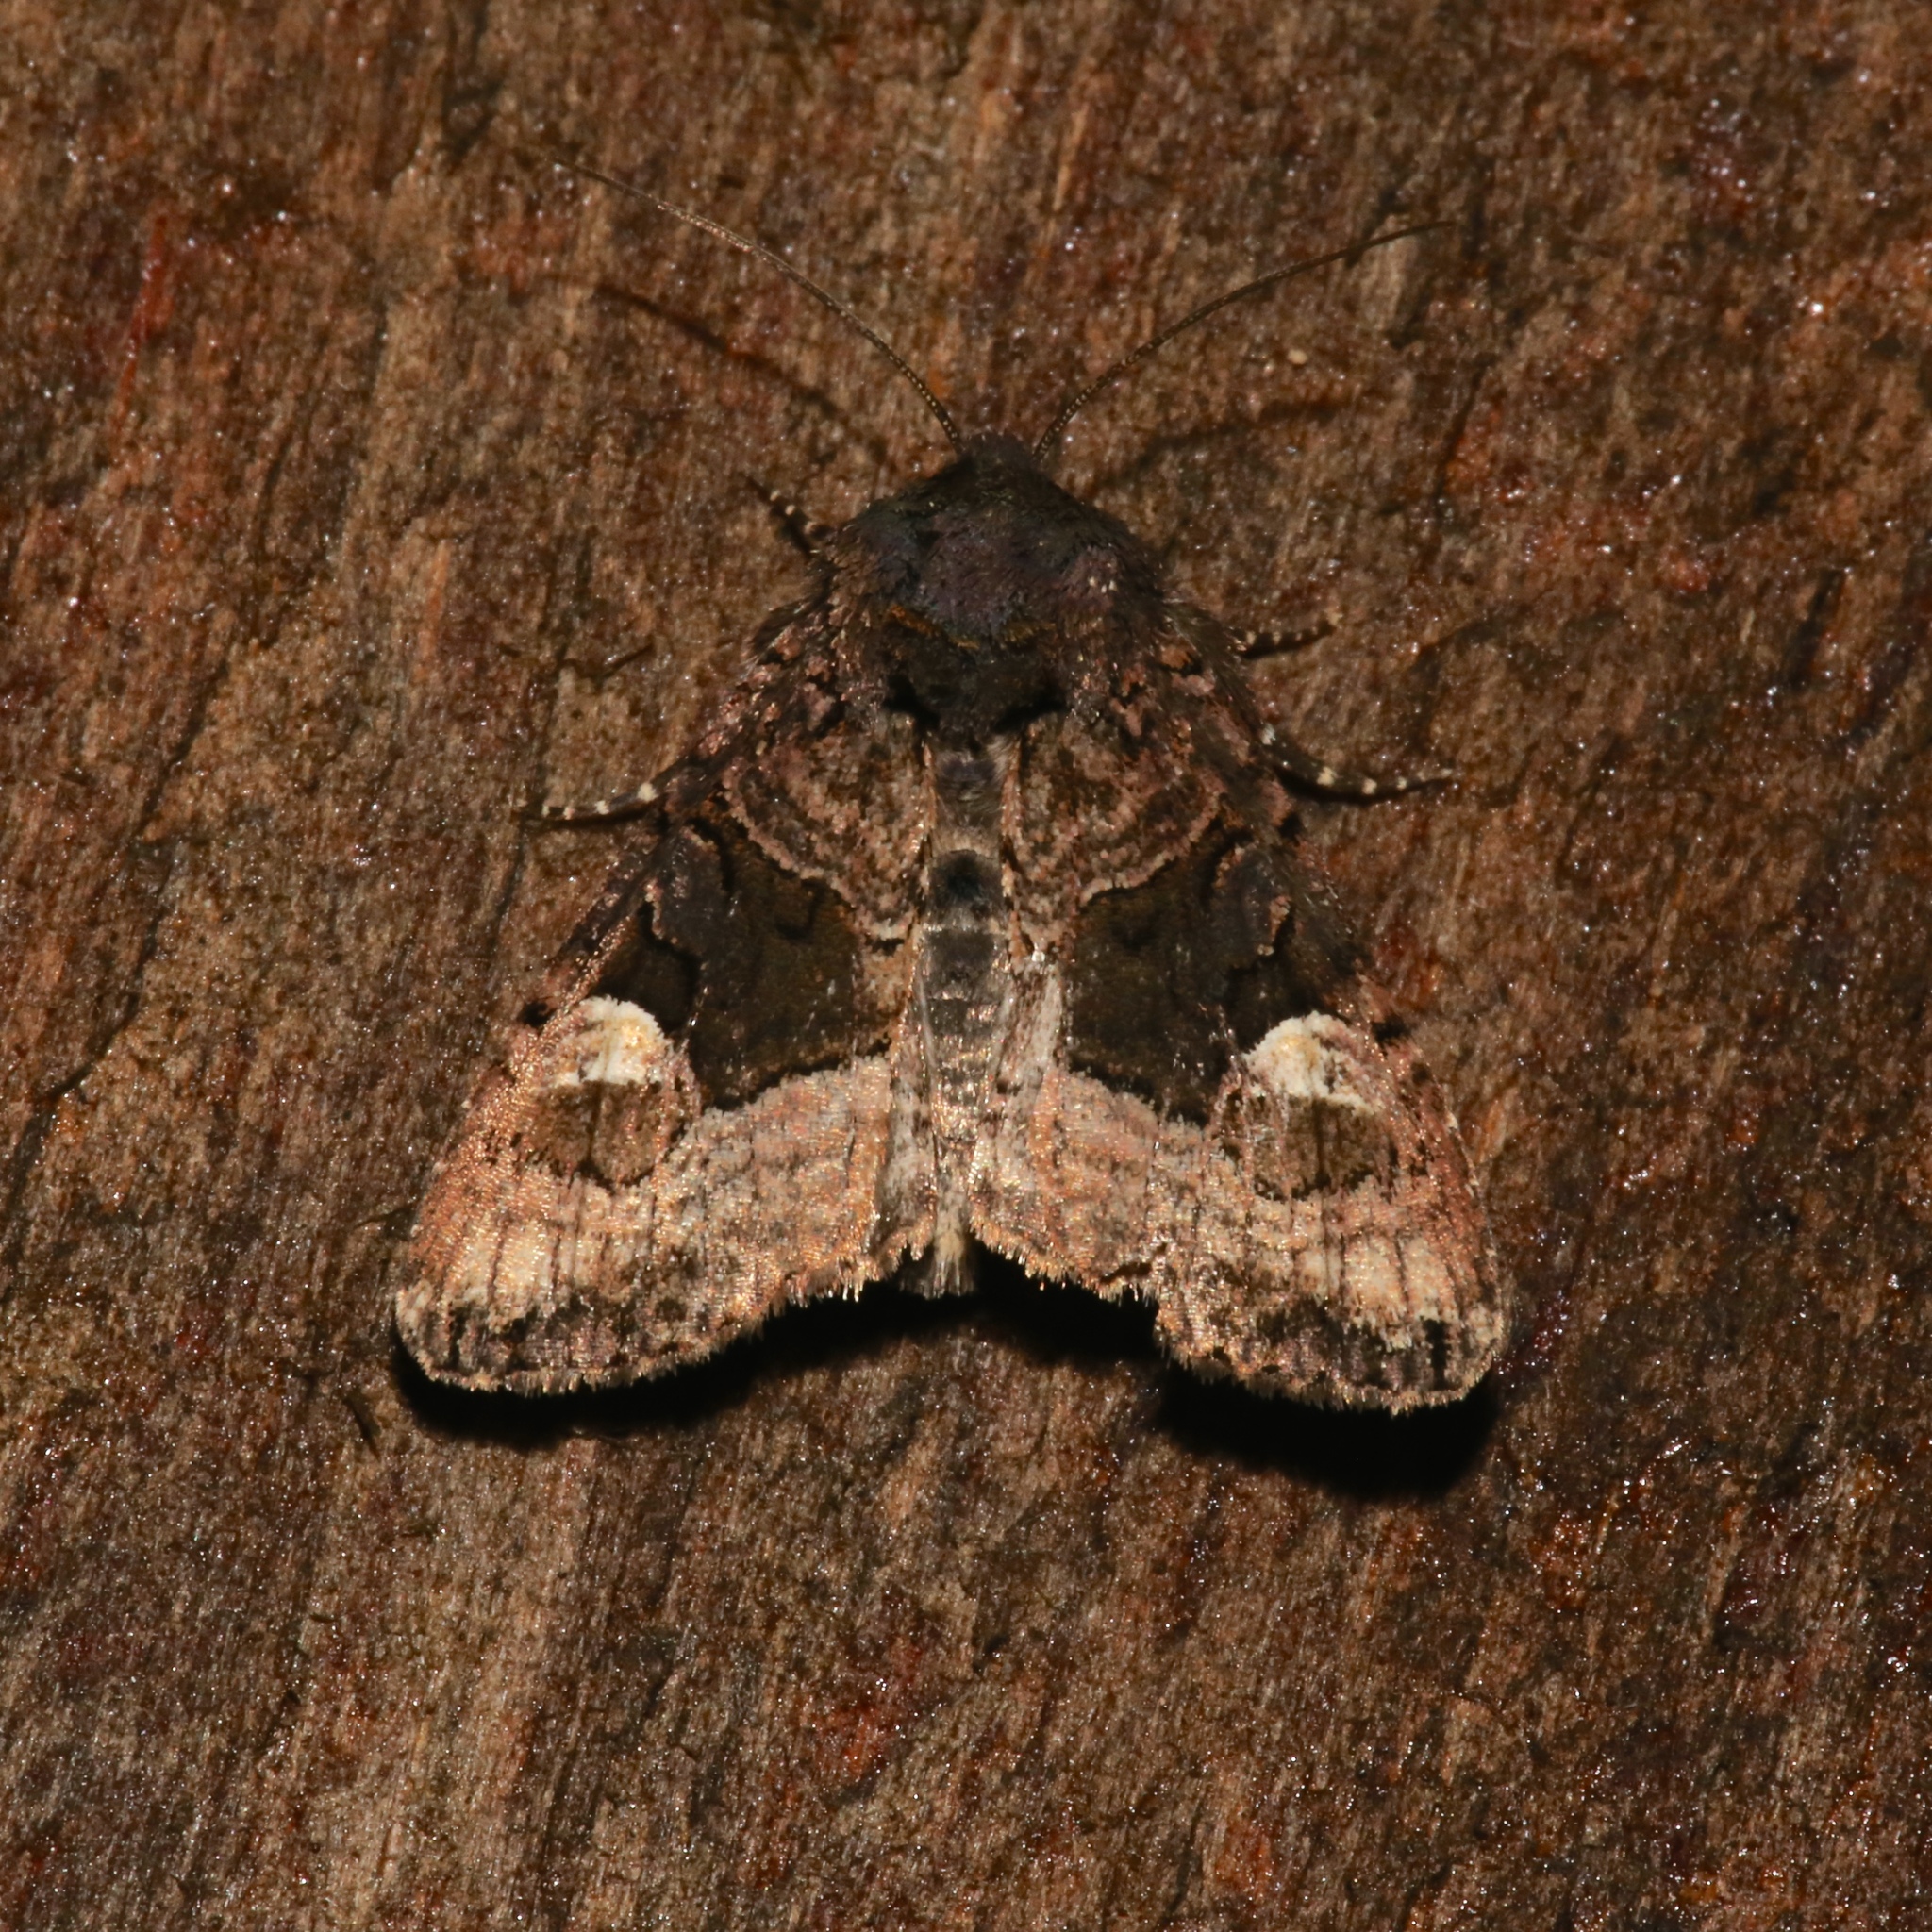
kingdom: Animalia
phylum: Arthropoda
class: Insecta
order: Lepidoptera
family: Noctuidae
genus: Euplexia
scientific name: Euplexia benesimilis
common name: American angle shades
